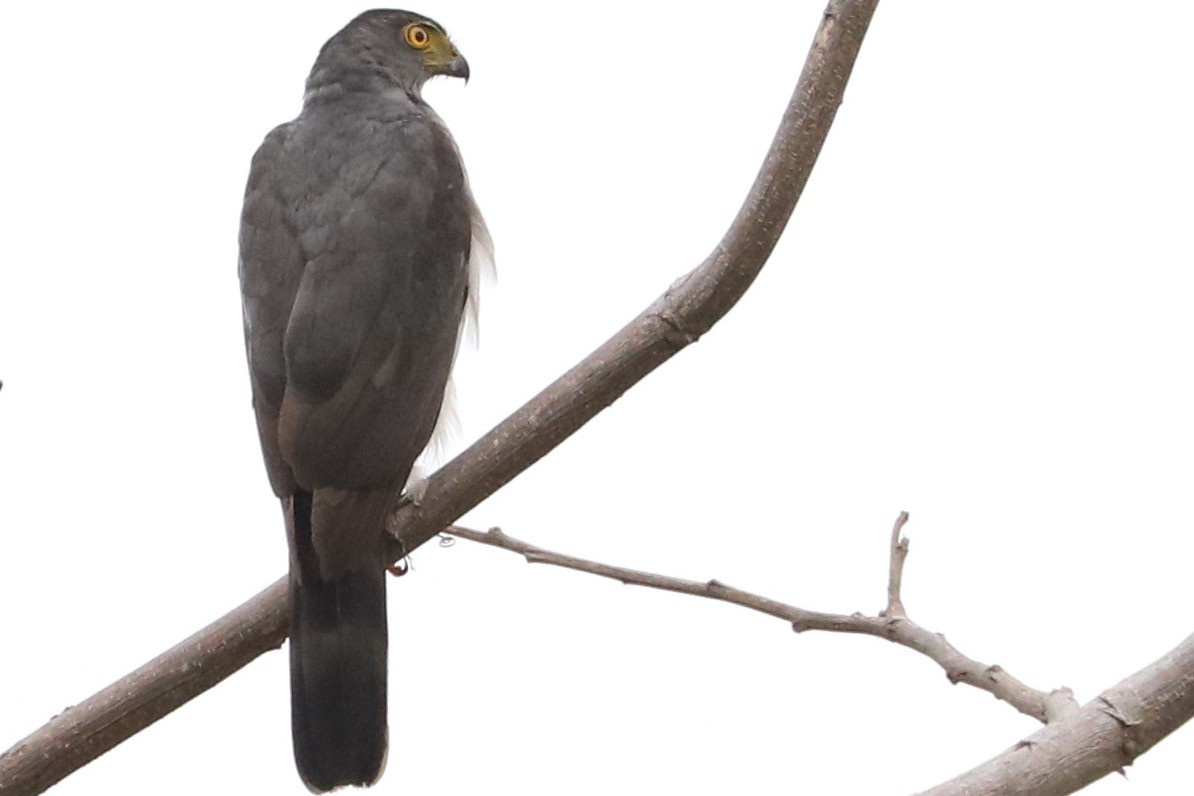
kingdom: Animalia
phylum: Chordata
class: Aves
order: Accipitriformes
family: Accipitridae
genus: Accipiter
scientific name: Accipiter bicolor
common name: Bicolored hawk
